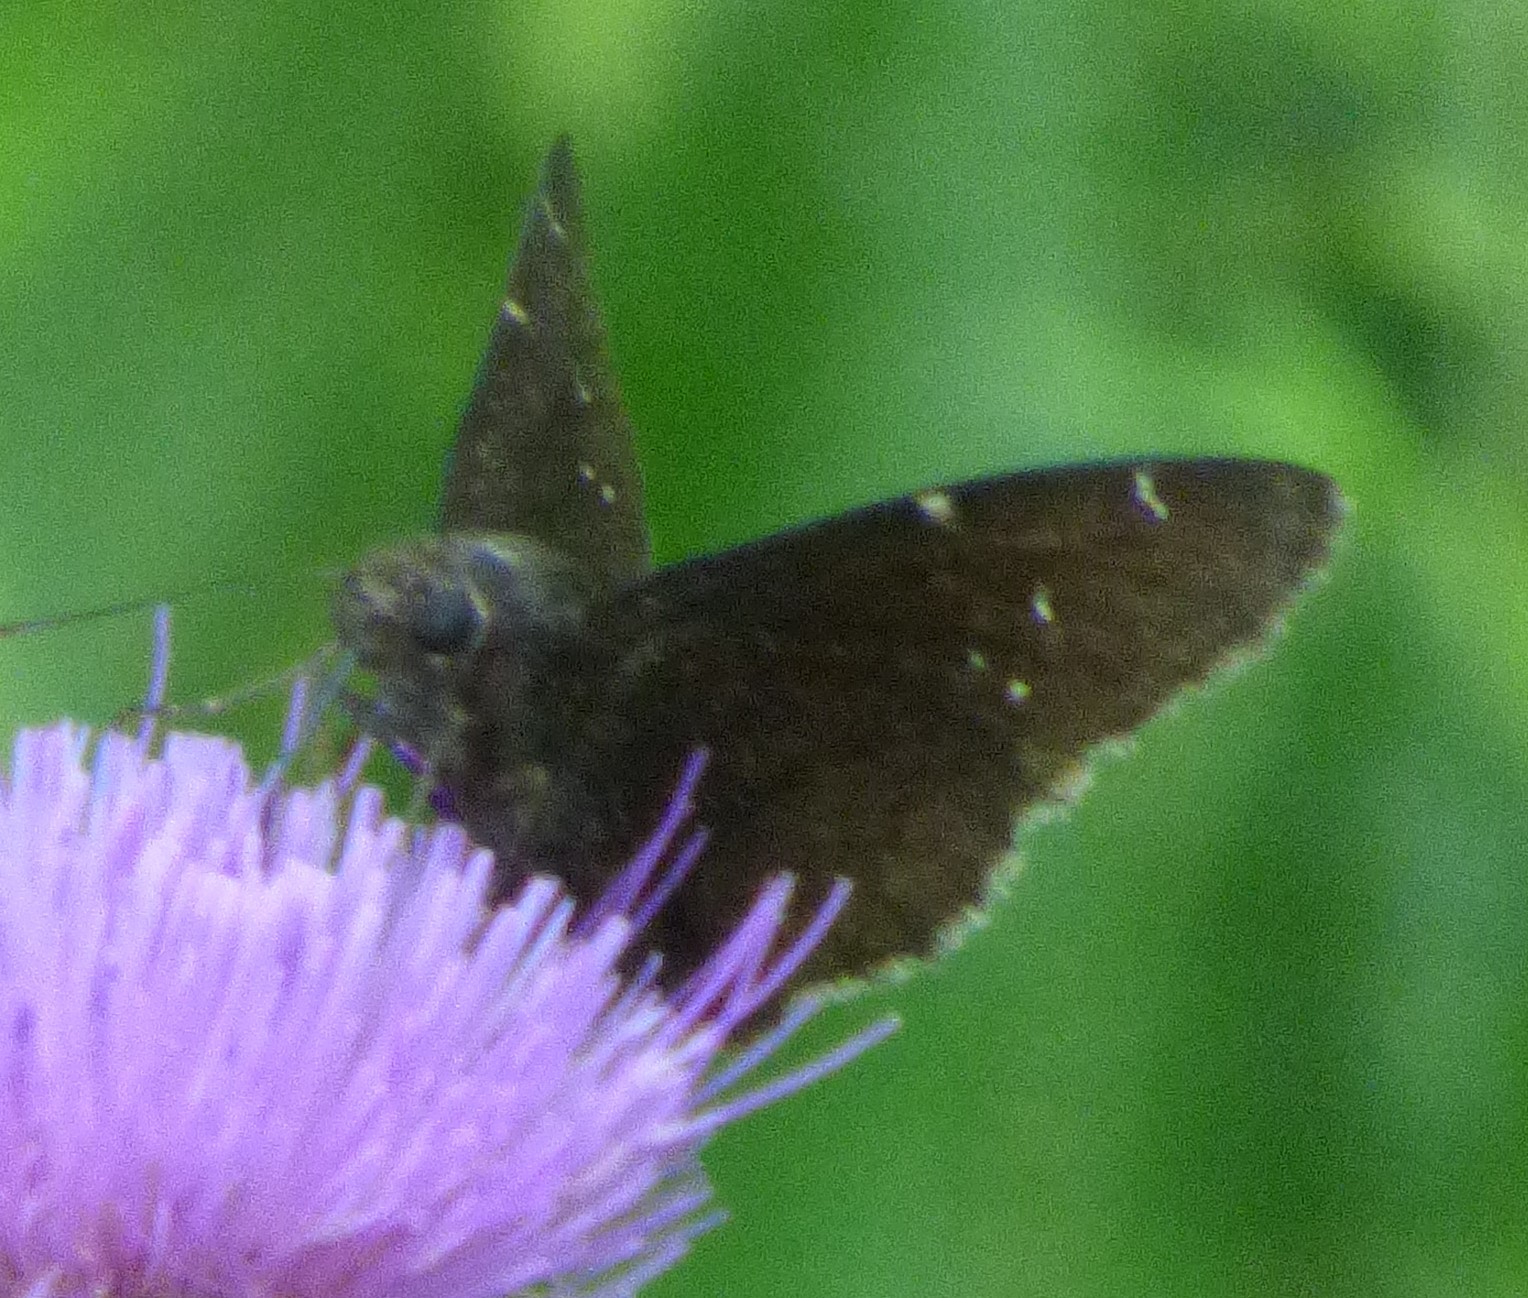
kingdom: Animalia
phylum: Arthropoda
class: Insecta
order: Lepidoptera
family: Hesperiidae
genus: Thorybes
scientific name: Thorybes pylades
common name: Northern cloudywing
